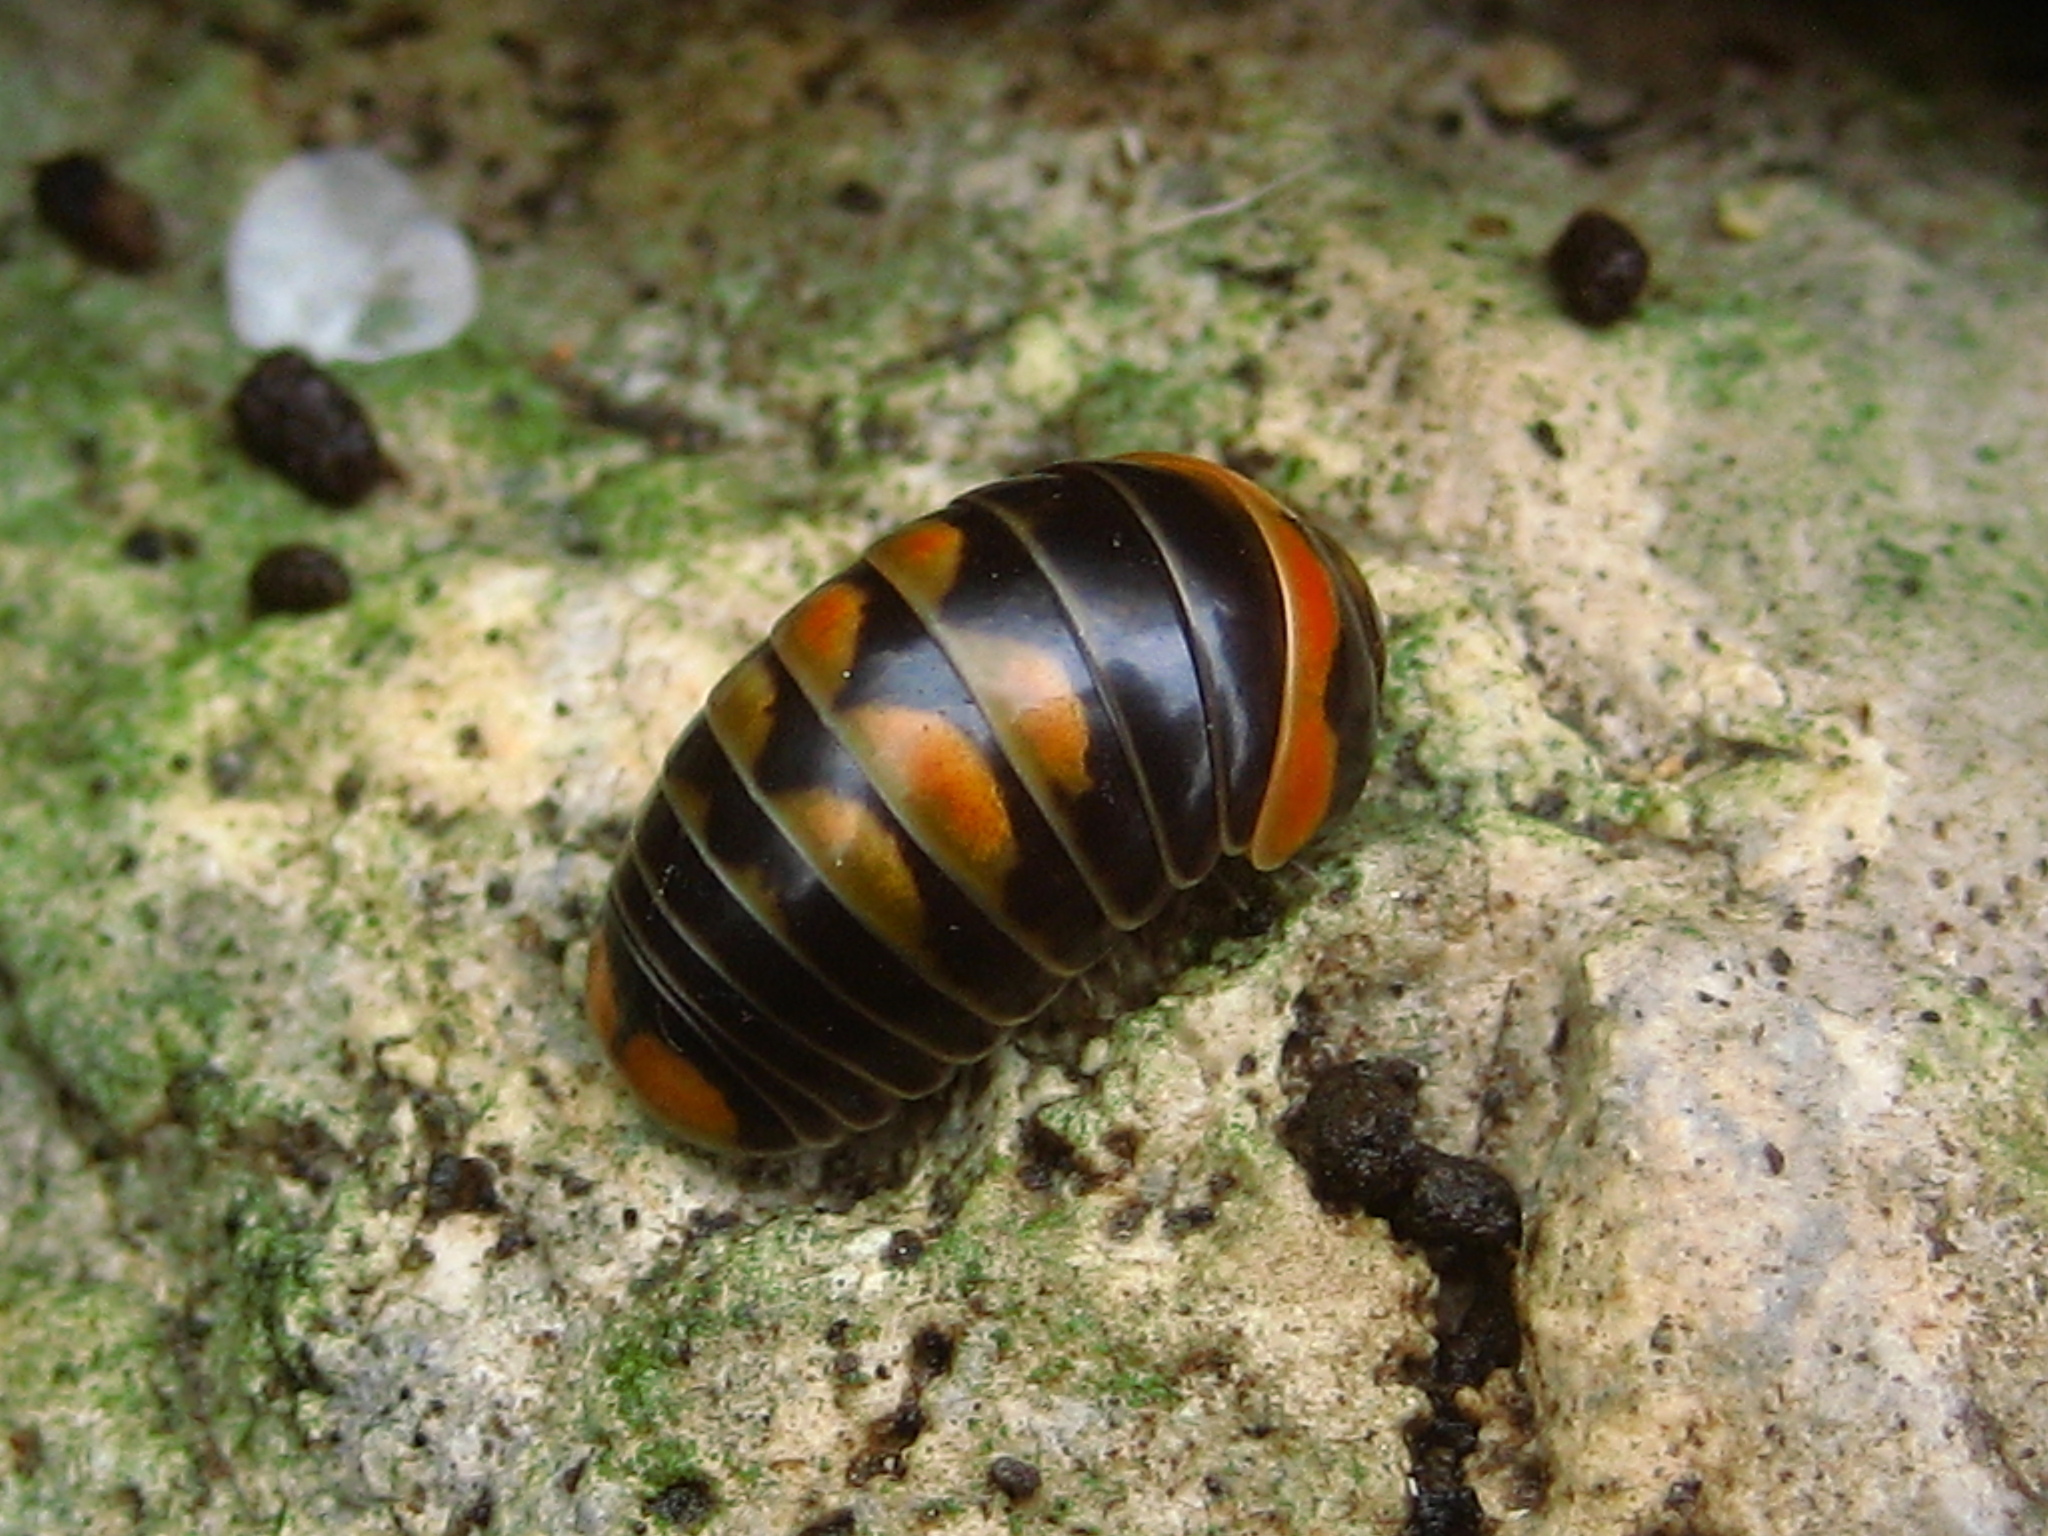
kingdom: Animalia
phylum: Arthropoda
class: Diplopoda
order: Glomerida
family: Glomeridae
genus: Glomeris
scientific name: Glomeris pulchra
